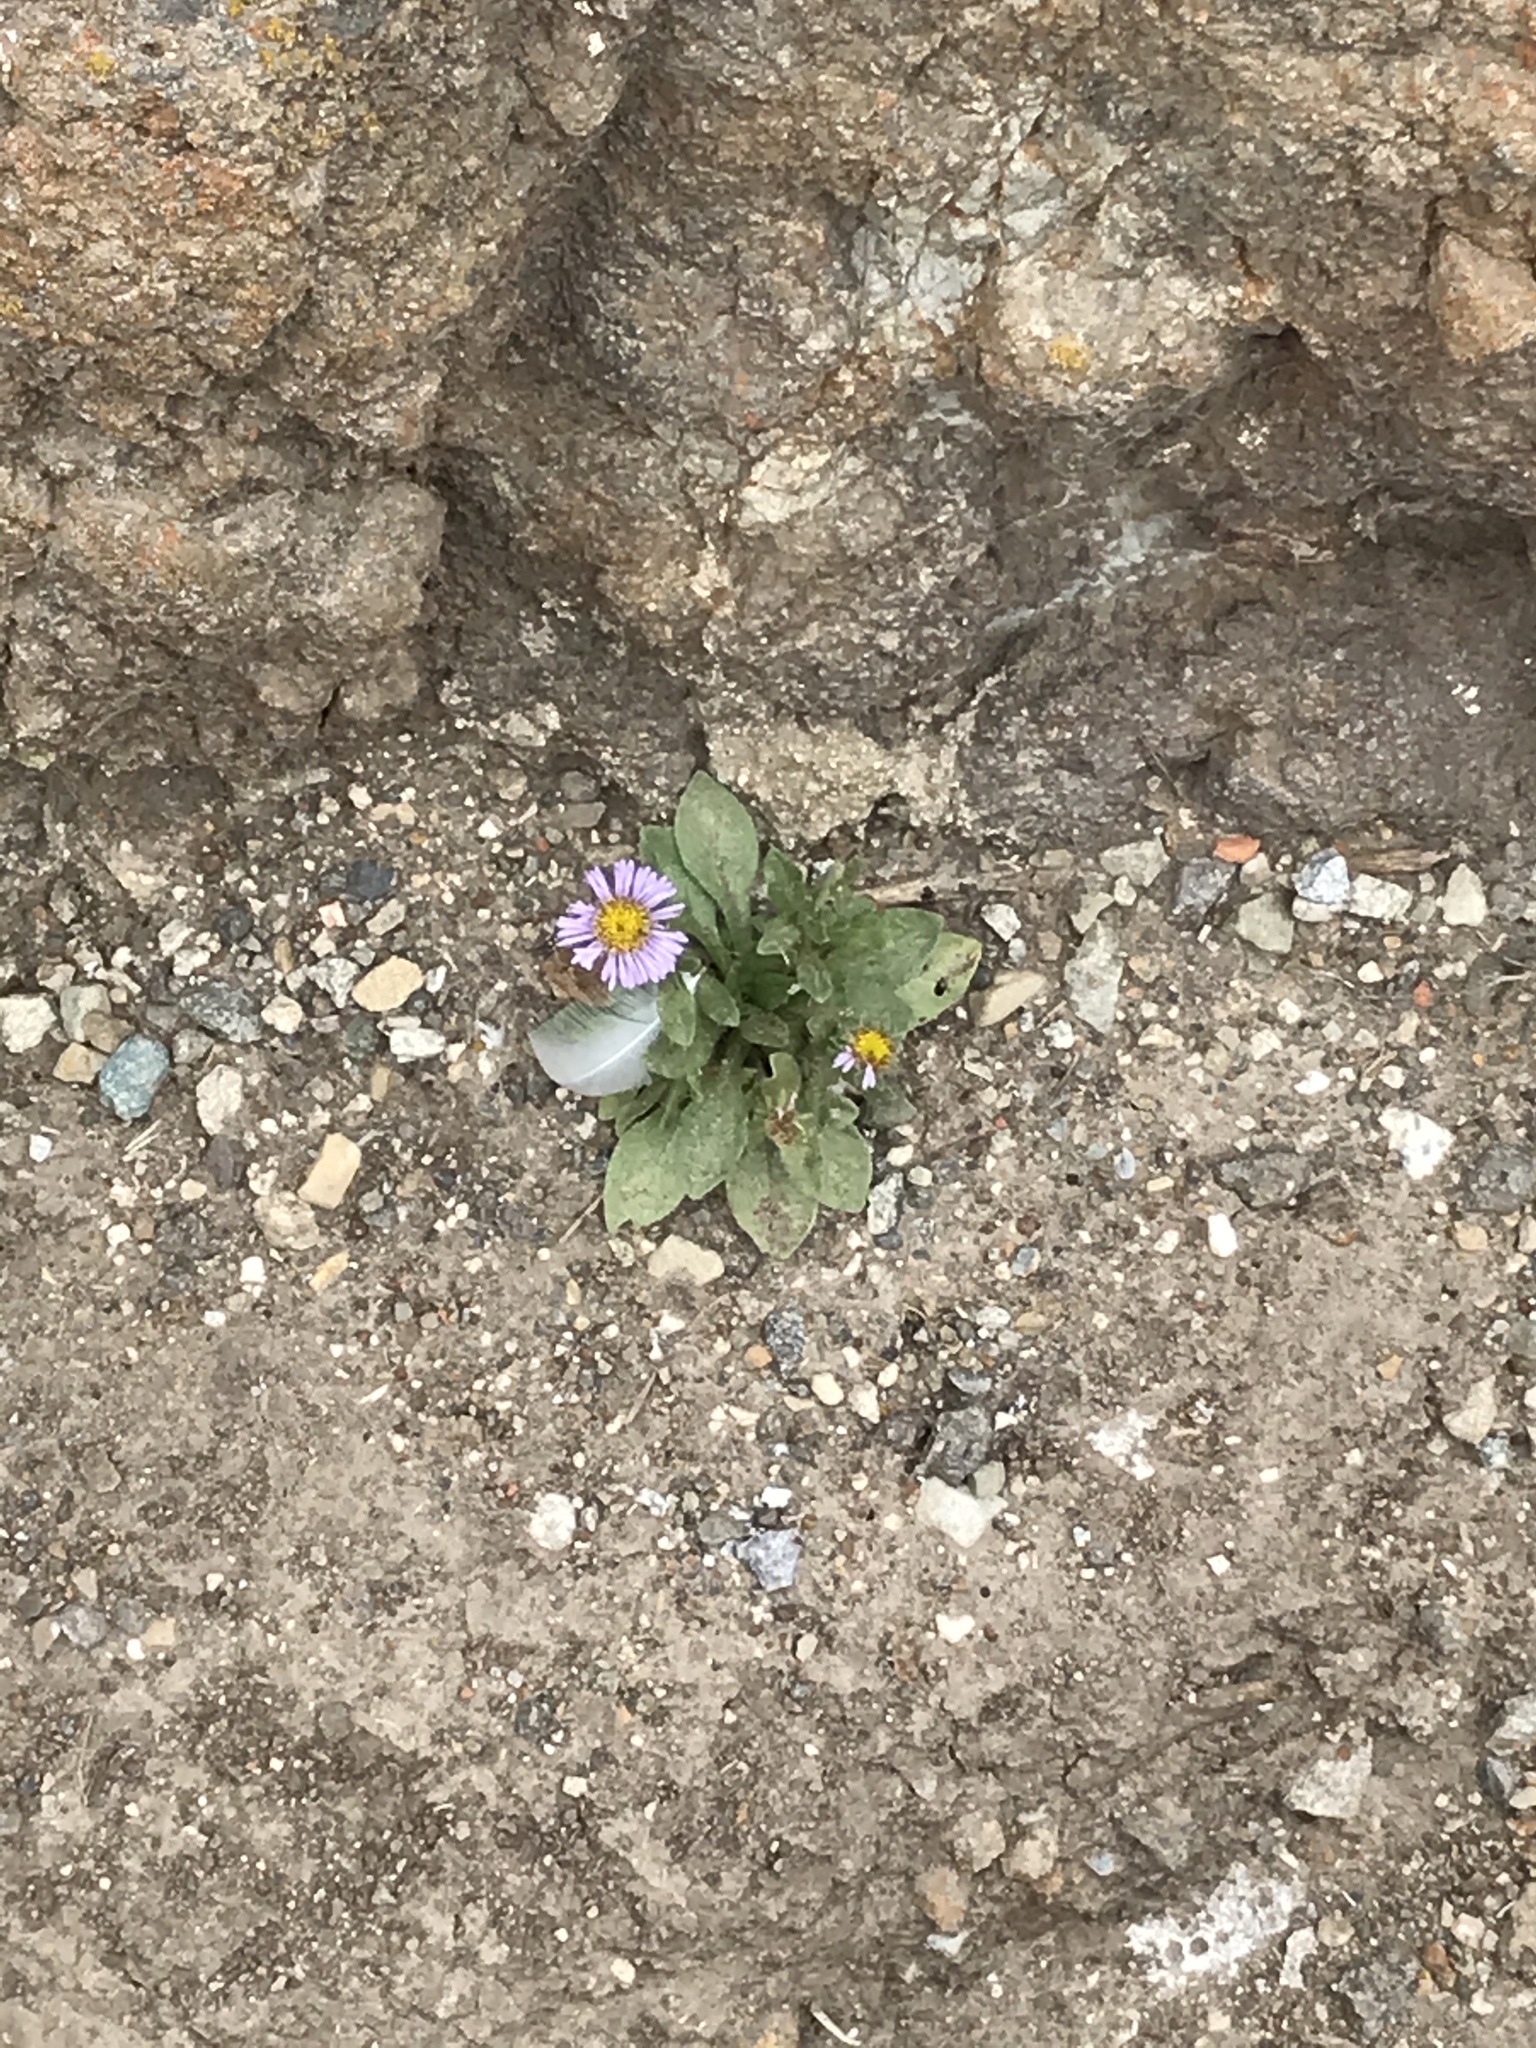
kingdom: Plantae
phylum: Tracheophyta
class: Magnoliopsida
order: Asterales
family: Asteraceae
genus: Erigeron
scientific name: Erigeron glaucus
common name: Seaside daisy
